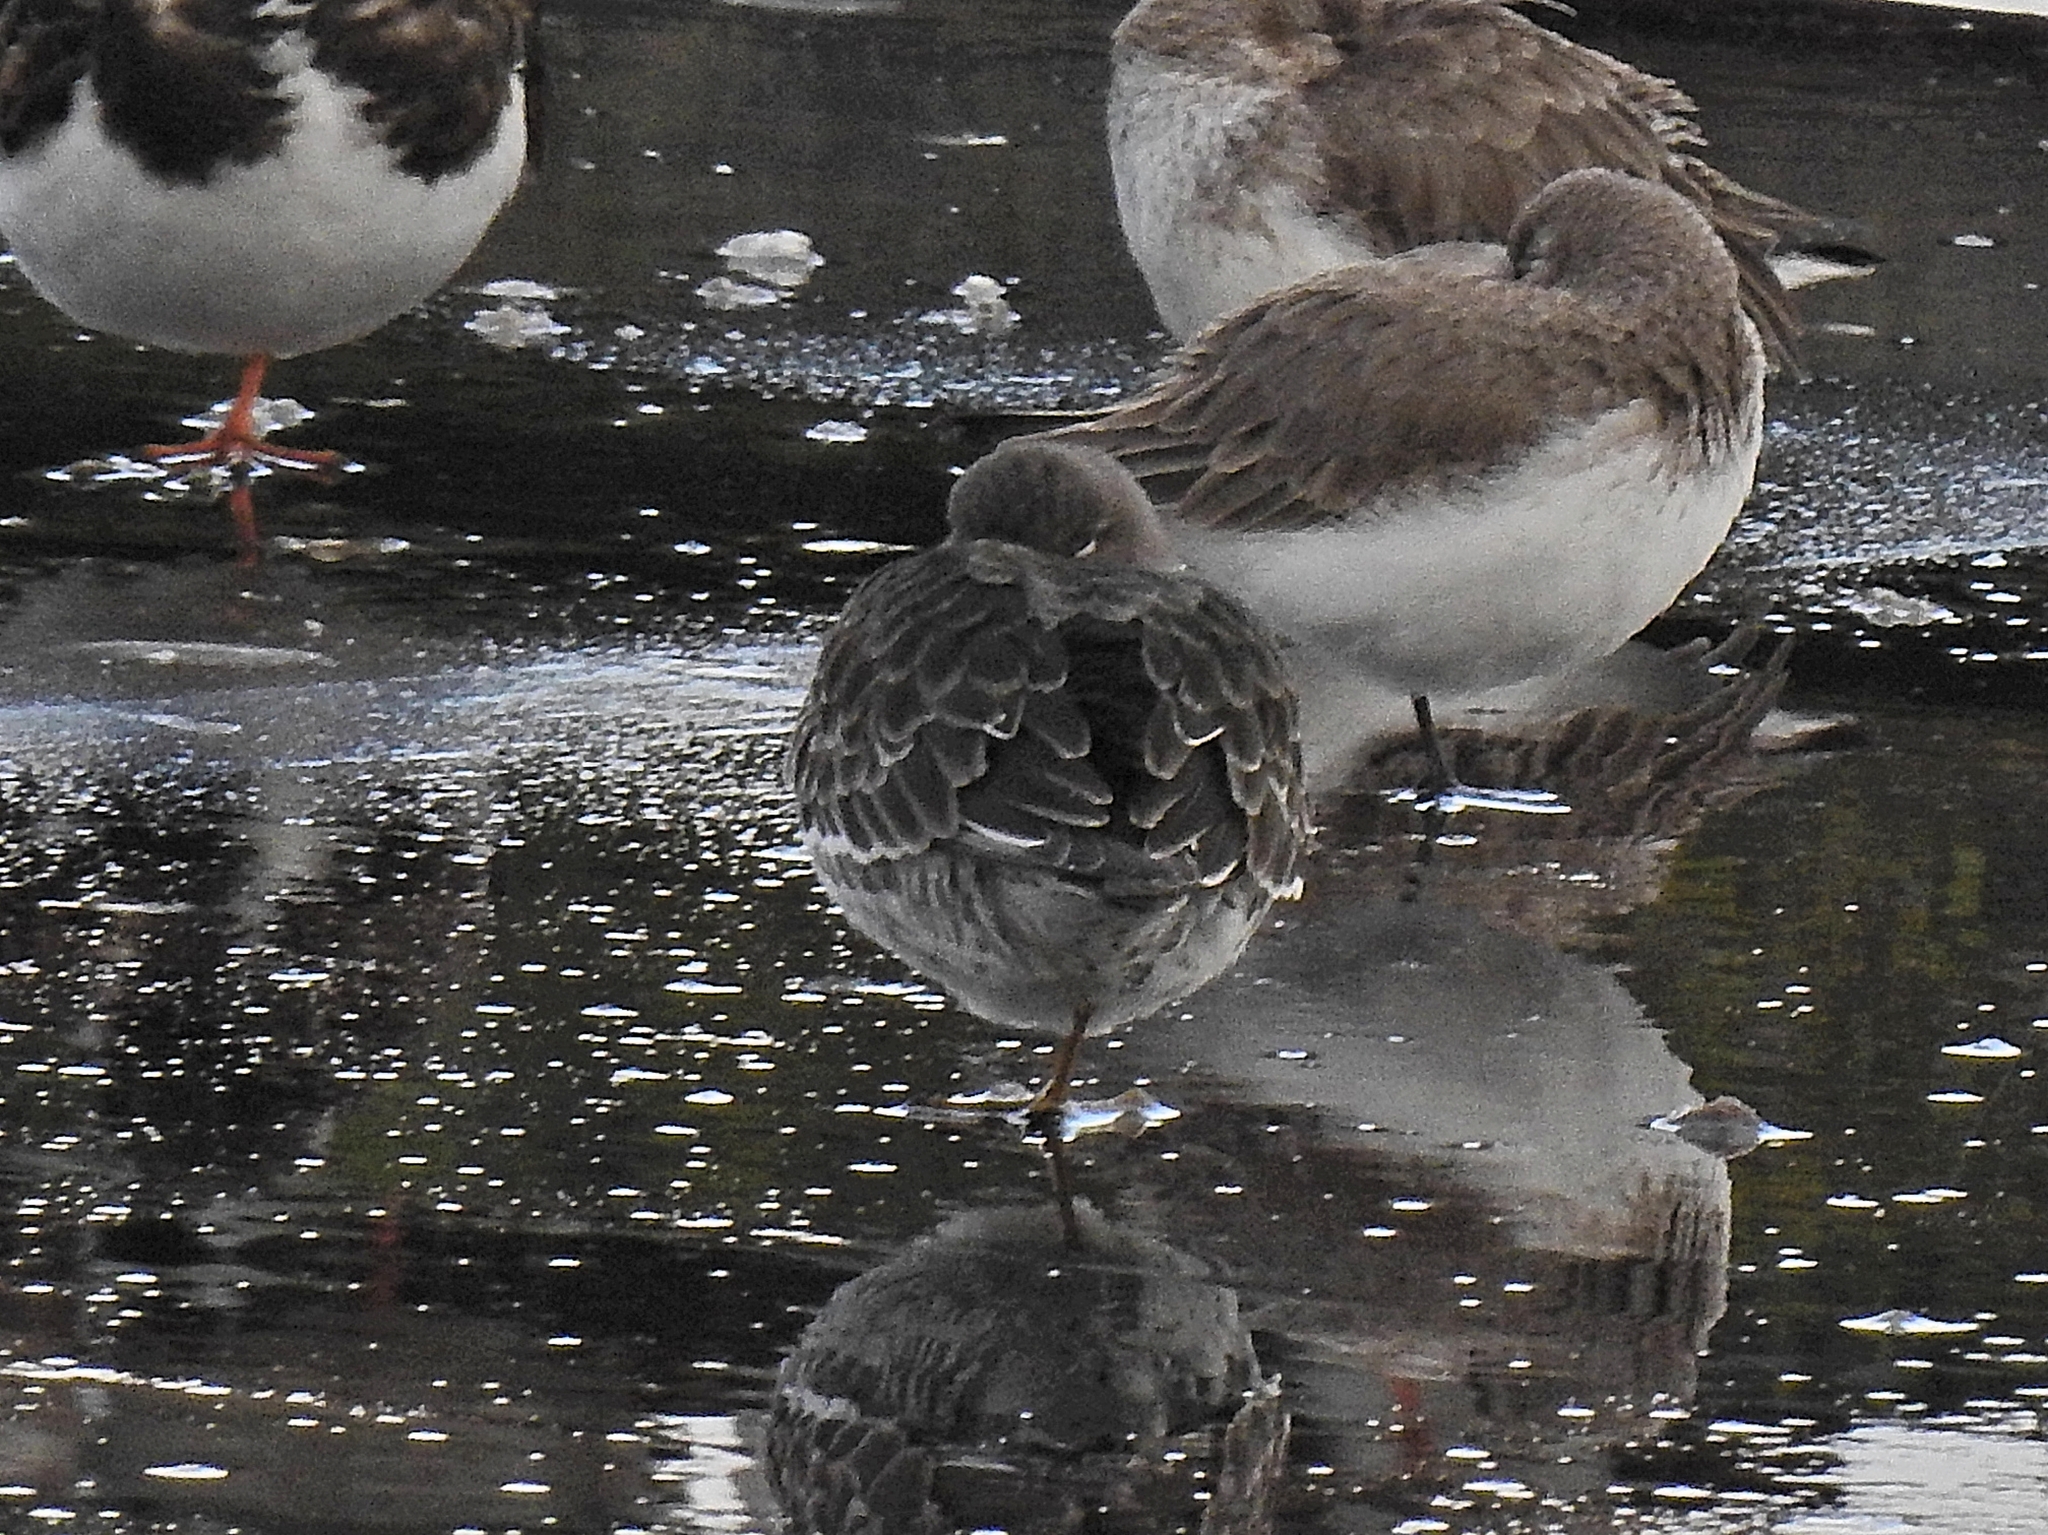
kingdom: Animalia
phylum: Chordata
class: Aves
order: Charadriiformes
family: Scolopacidae
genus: Calidris
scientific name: Calidris maritima
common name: Purple sandpiper
